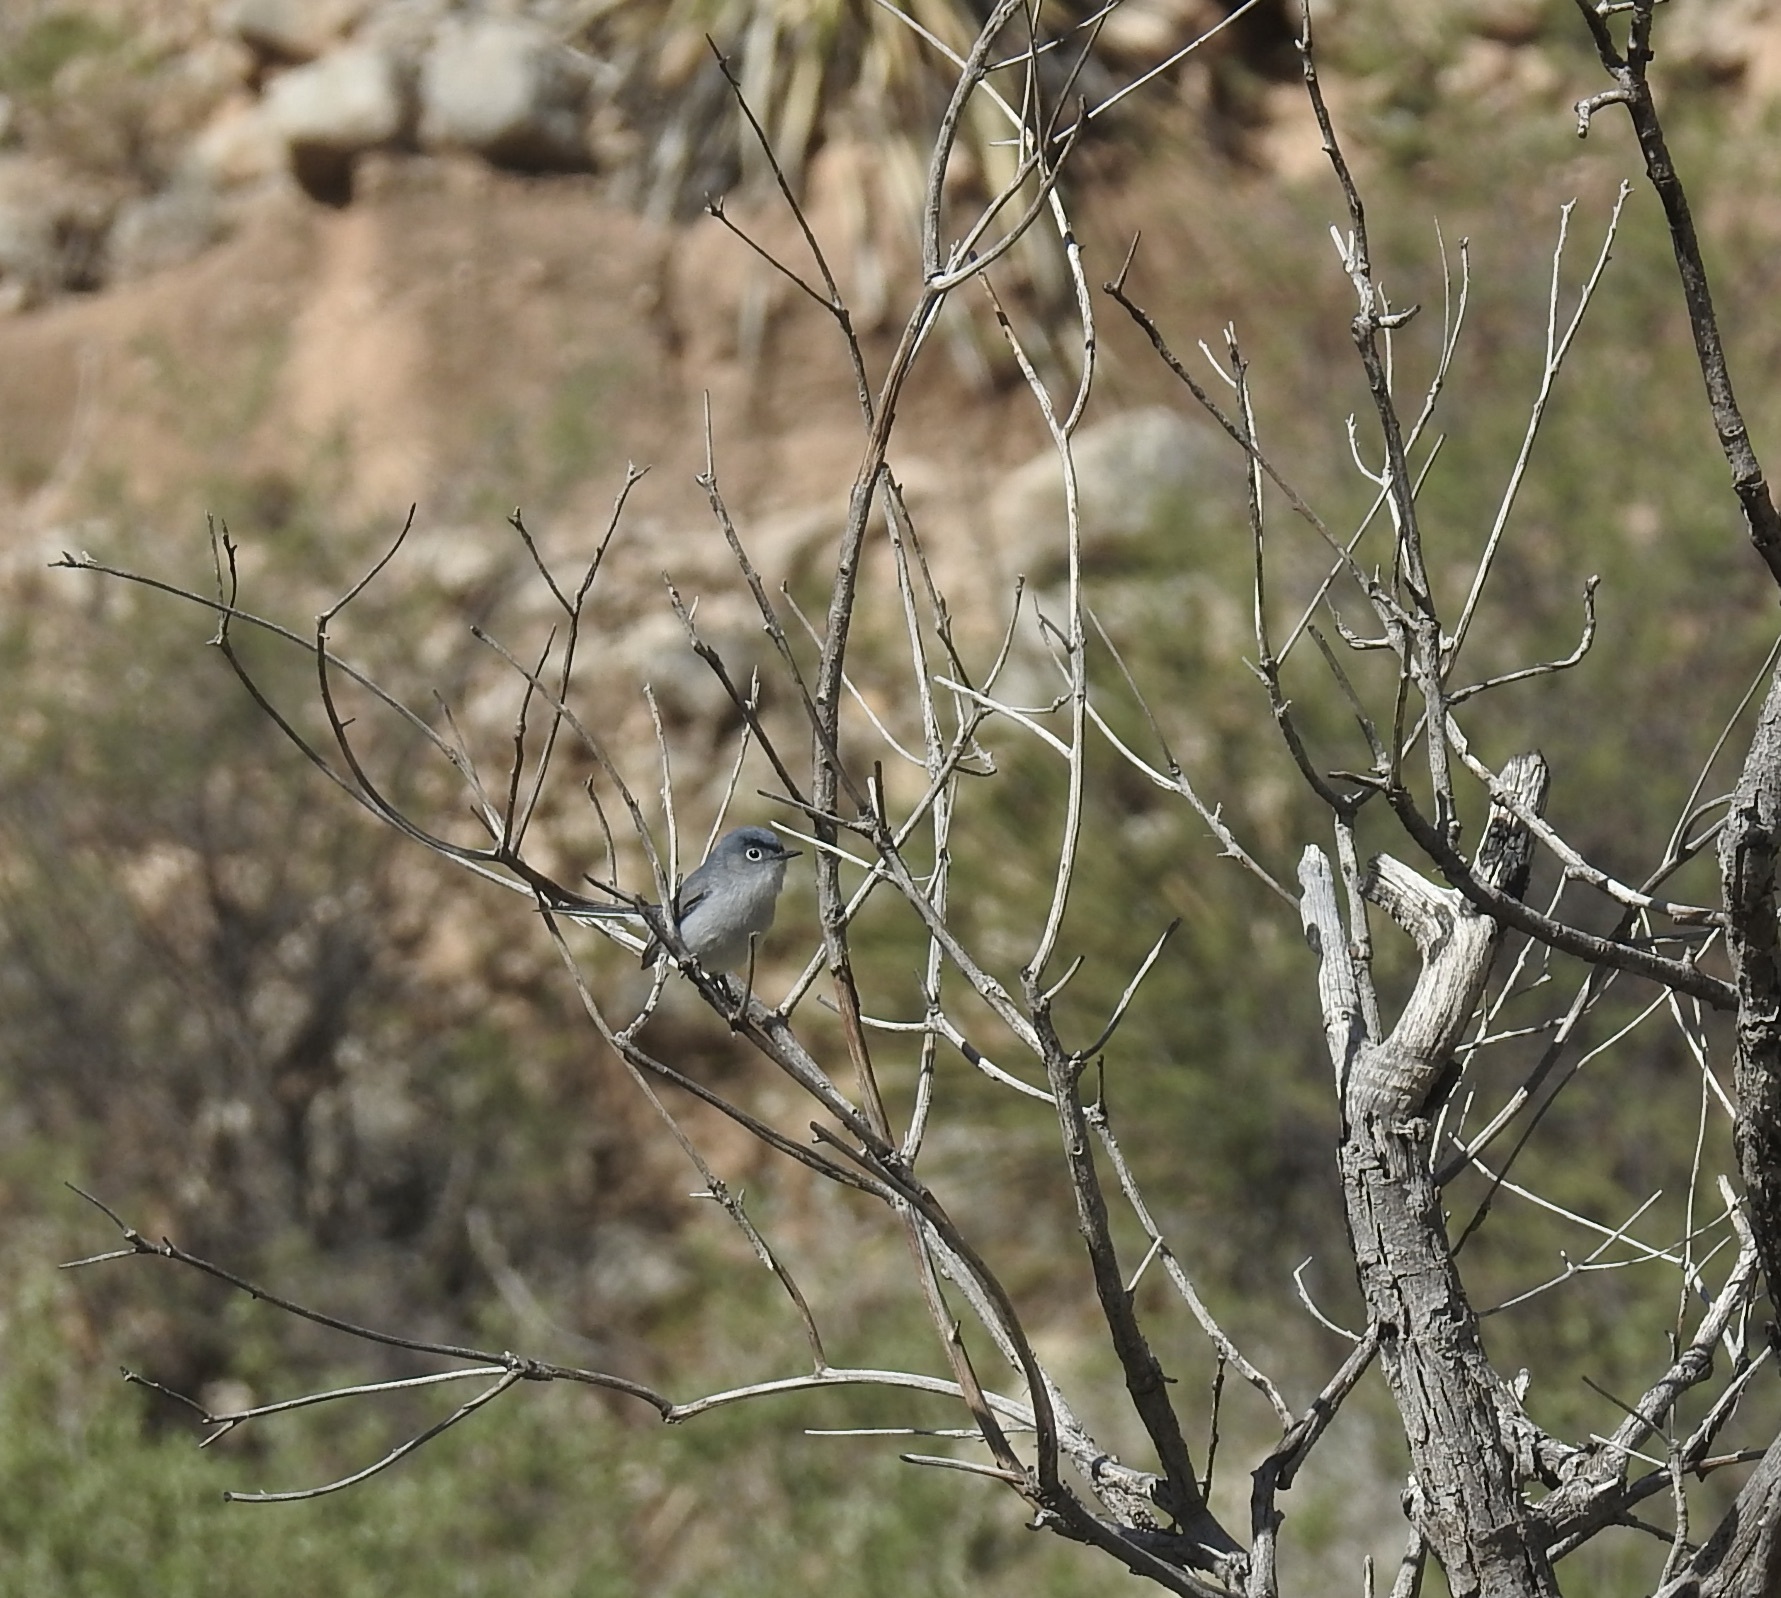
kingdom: Animalia
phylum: Chordata
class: Aves
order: Passeriformes
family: Polioptilidae
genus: Polioptila
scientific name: Polioptila caerulea
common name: Blue-gray gnatcatcher
